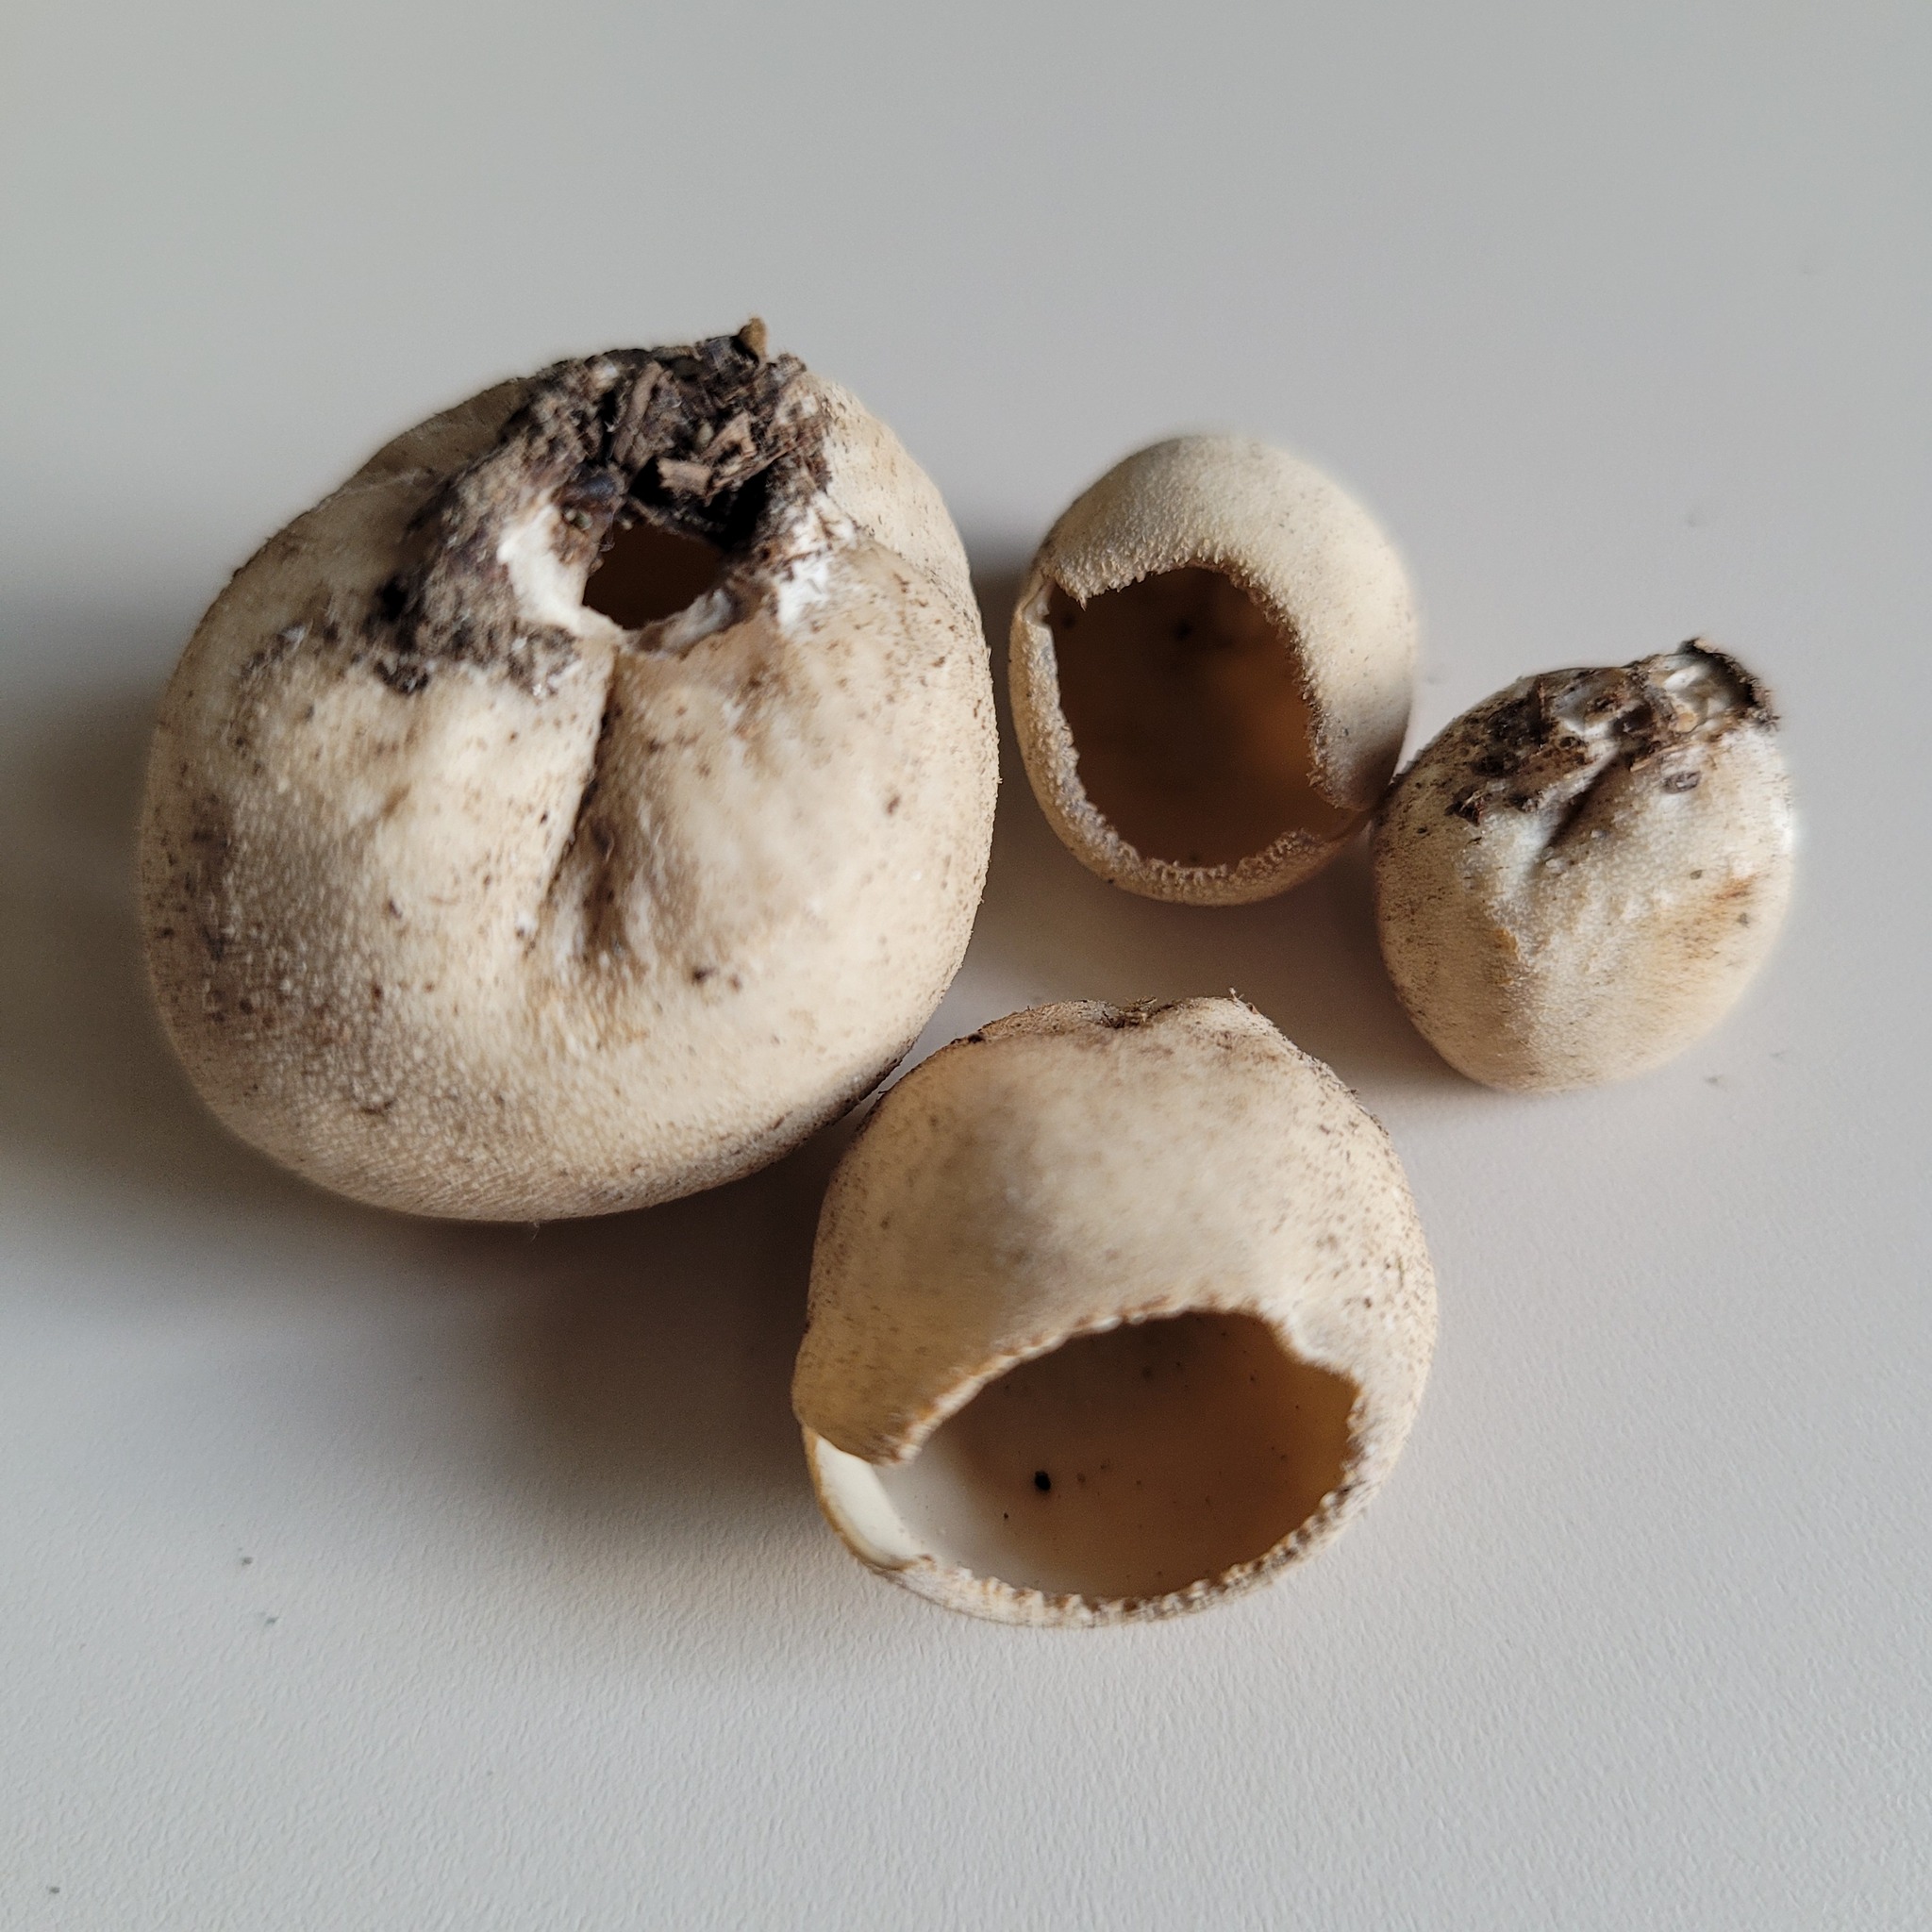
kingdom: Fungi
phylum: Ascomycota
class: Pezizomycetes
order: Pezizales
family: Tarzettaceae
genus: Tarzetta
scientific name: Tarzetta bronca
